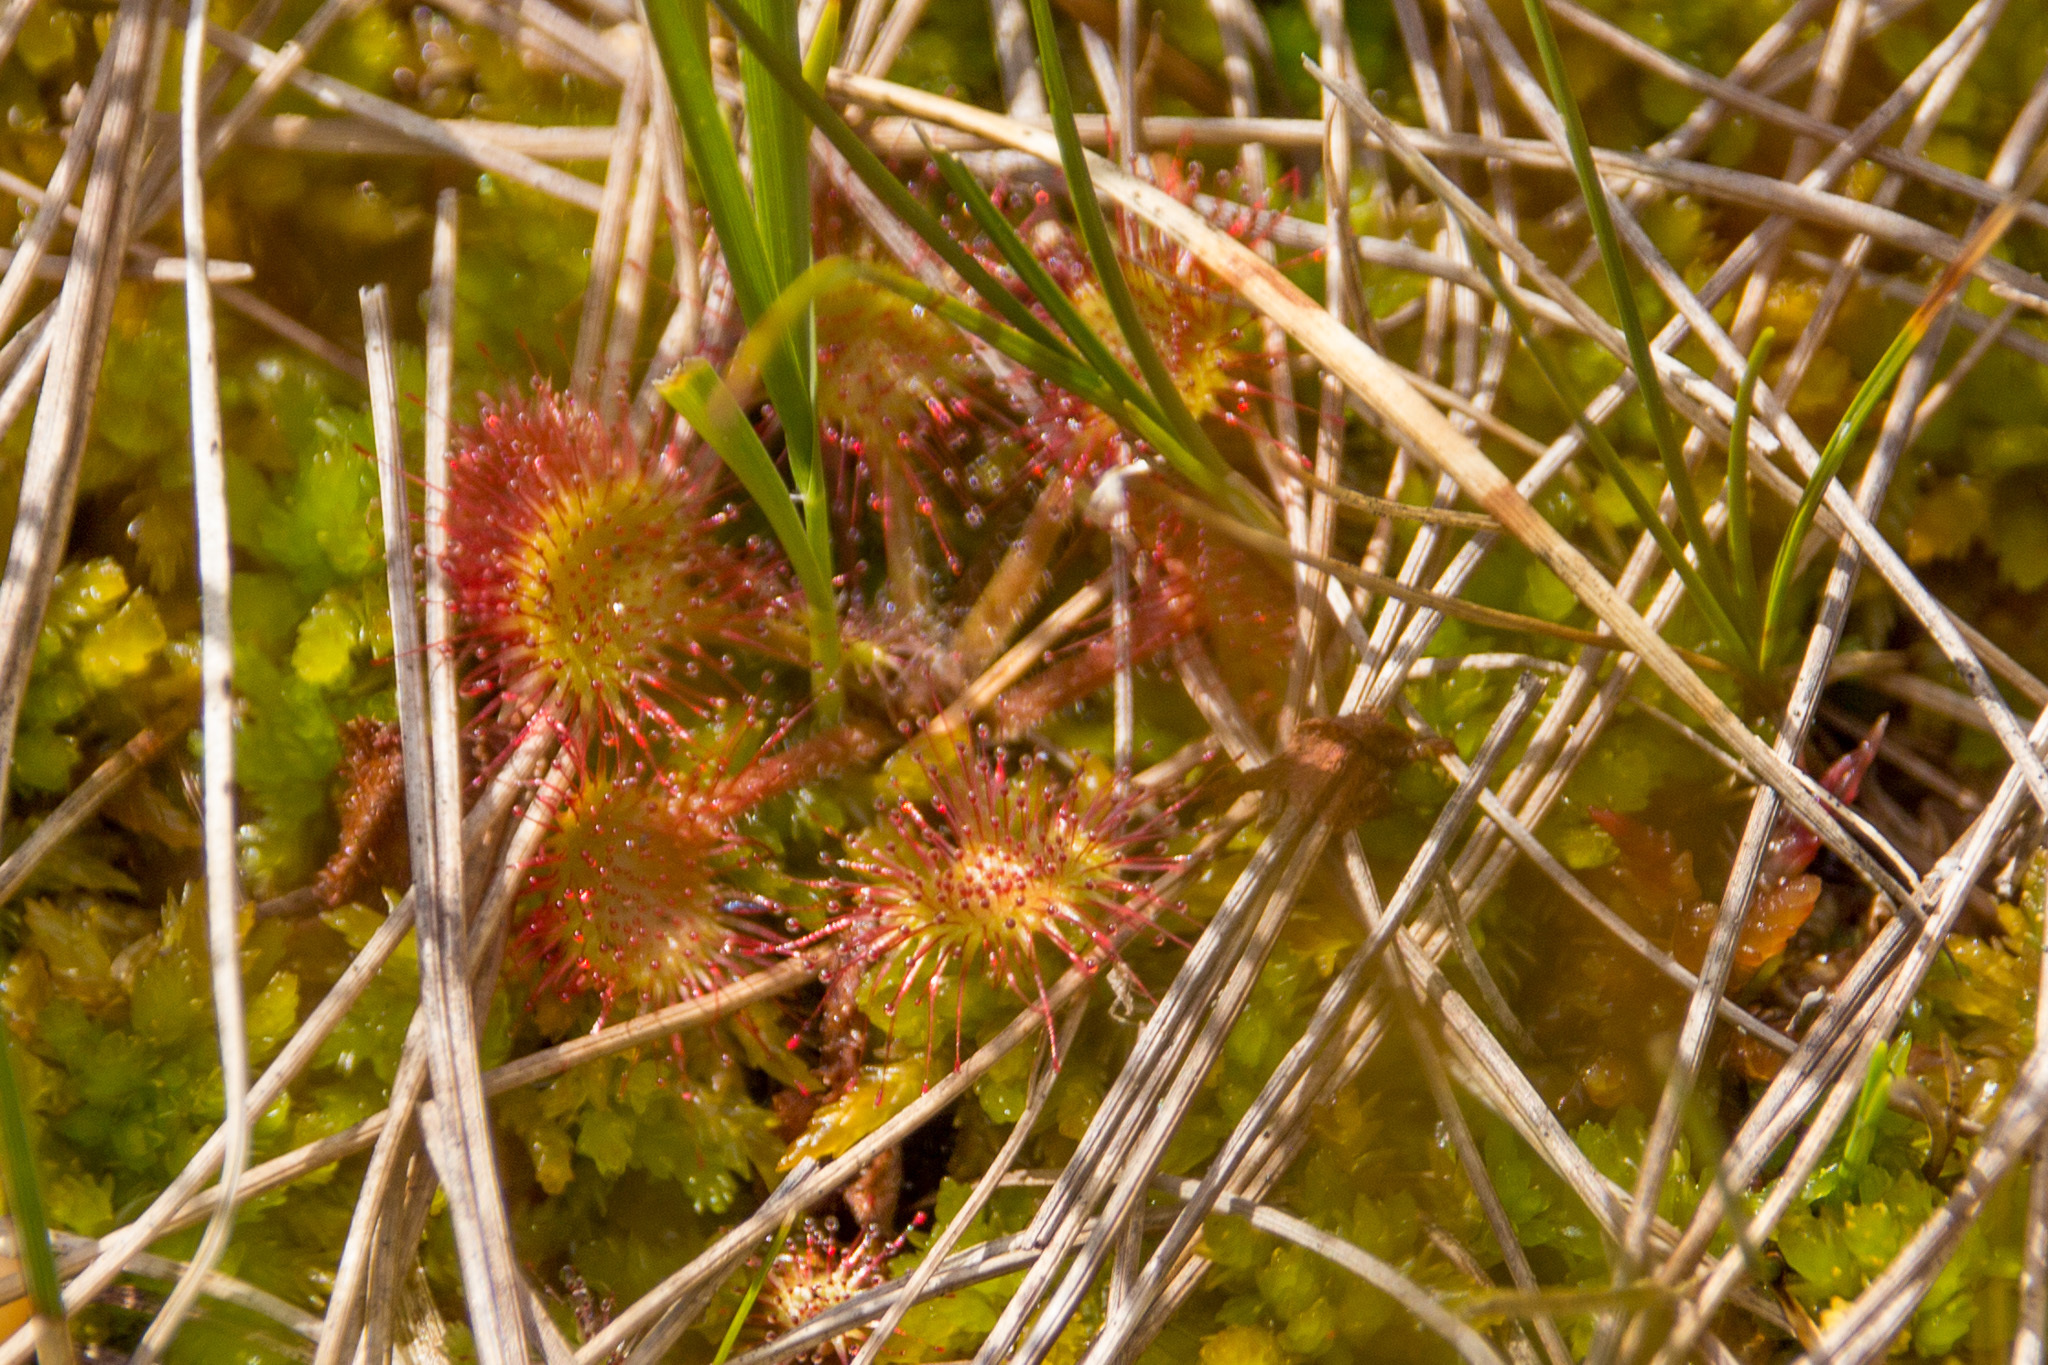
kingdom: Plantae
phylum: Tracheophyta
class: Magnoliopsida
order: Caryophyllales
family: Droseraceae
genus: Drosera
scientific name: Drosera rotundifolia
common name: Round-leaved sundew
